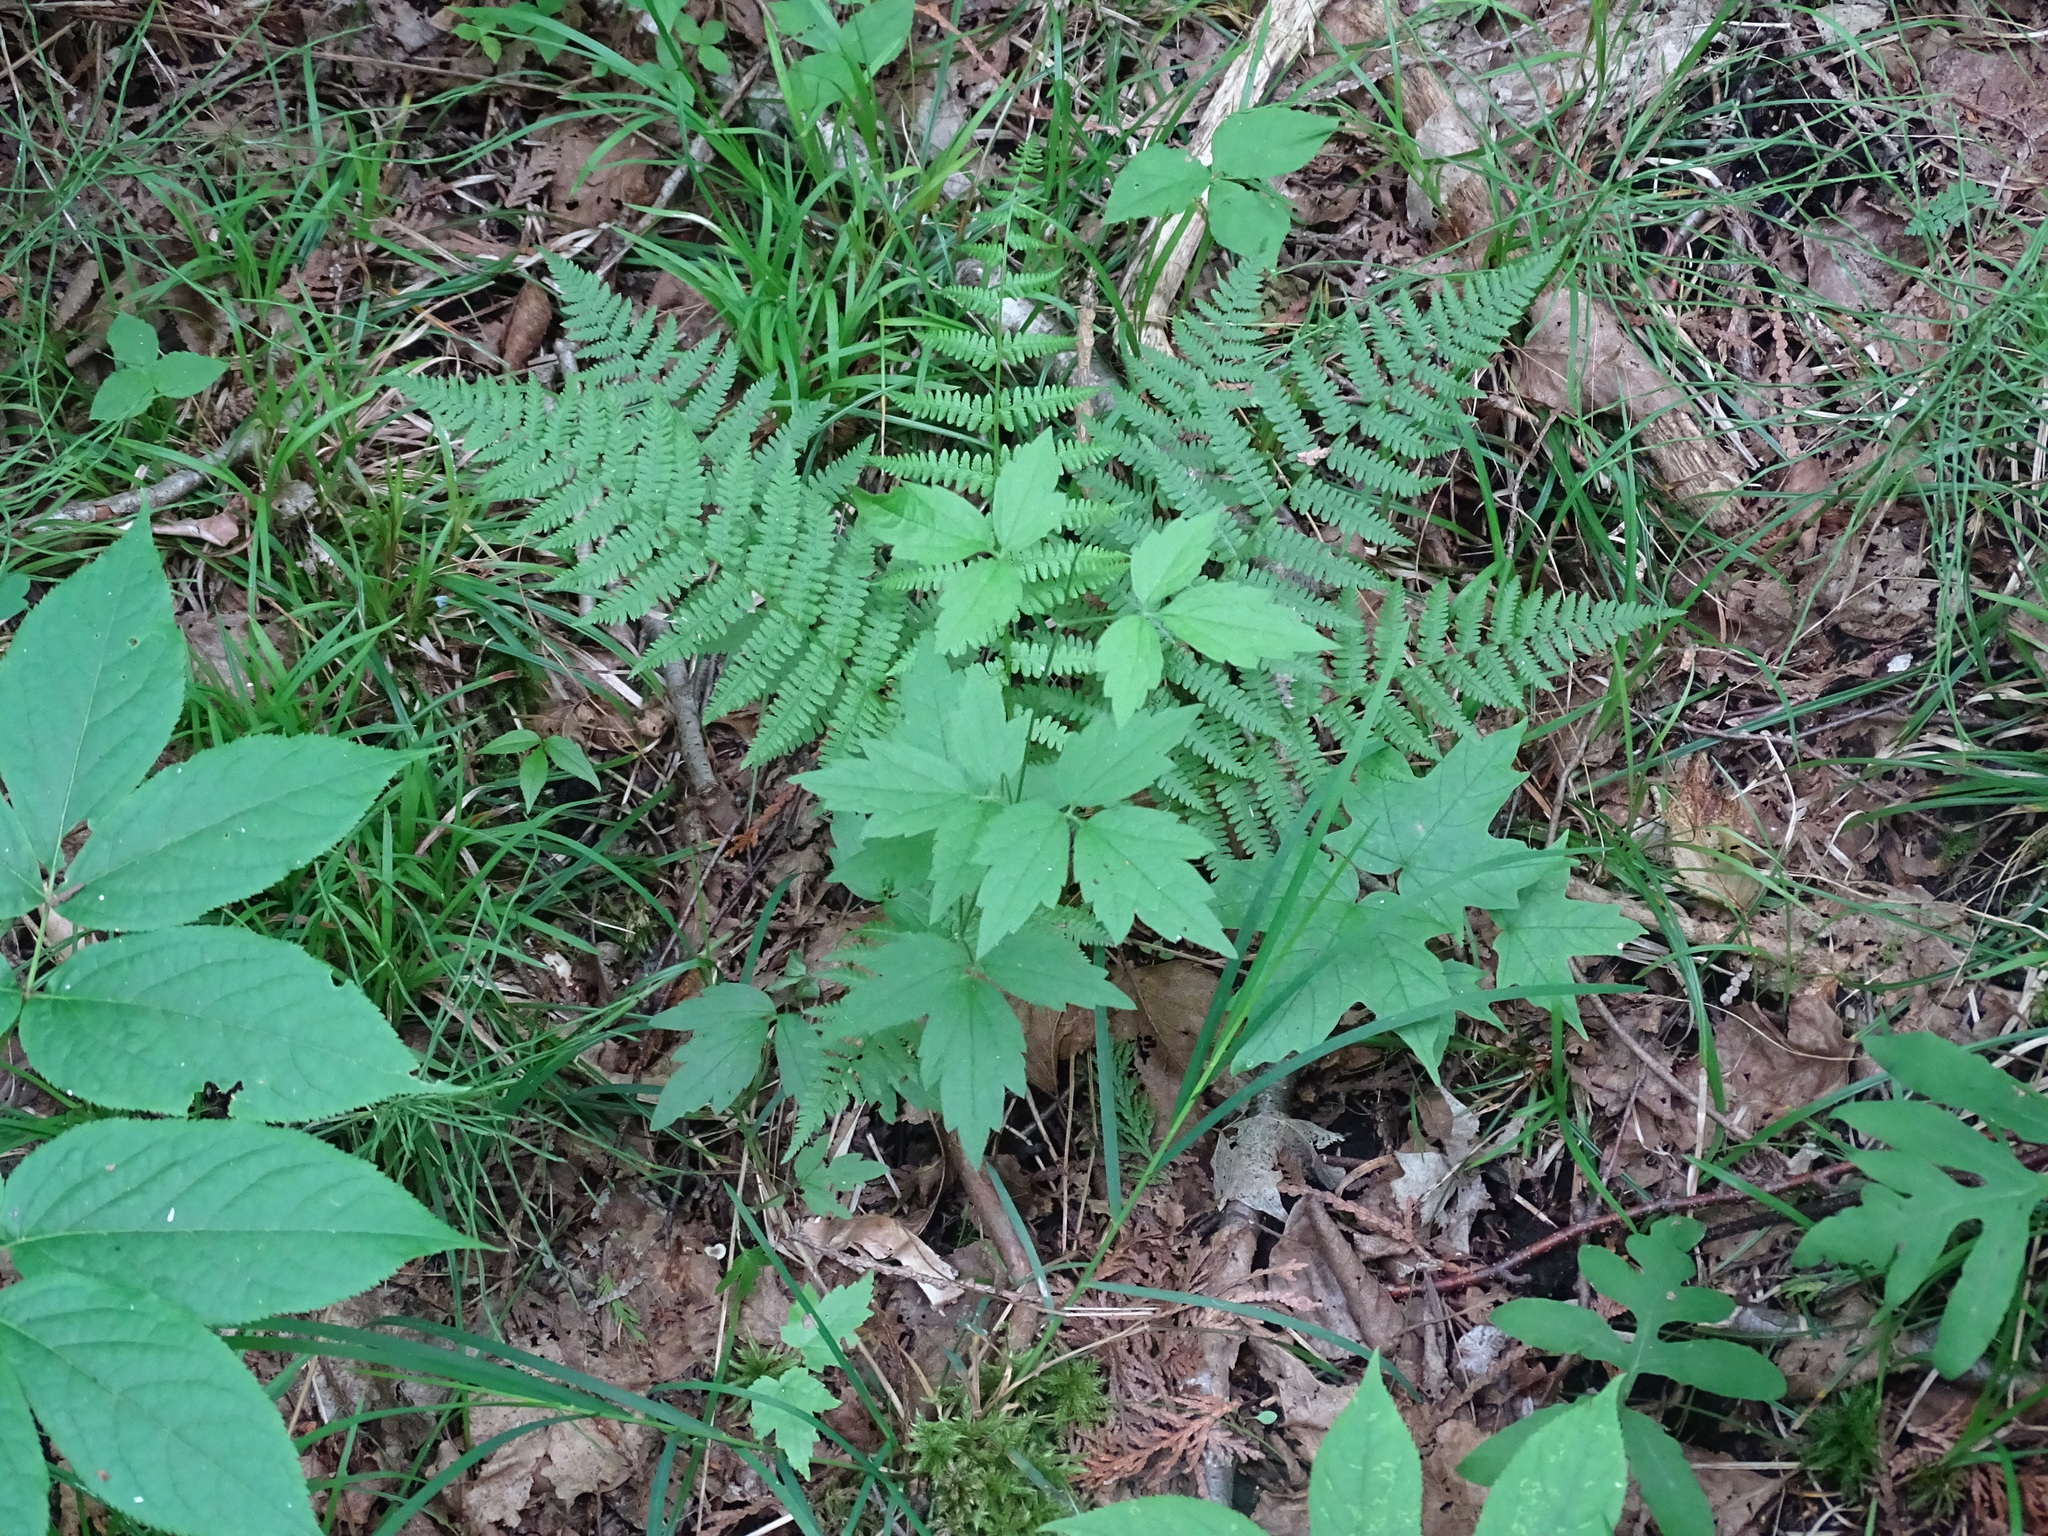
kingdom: Plantae
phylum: Tracheophyta
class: Magnoliopsida
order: Ranunculales
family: Ranunculaceae
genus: Clematis
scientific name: Clematis virginiana
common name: Virgin's-bower
